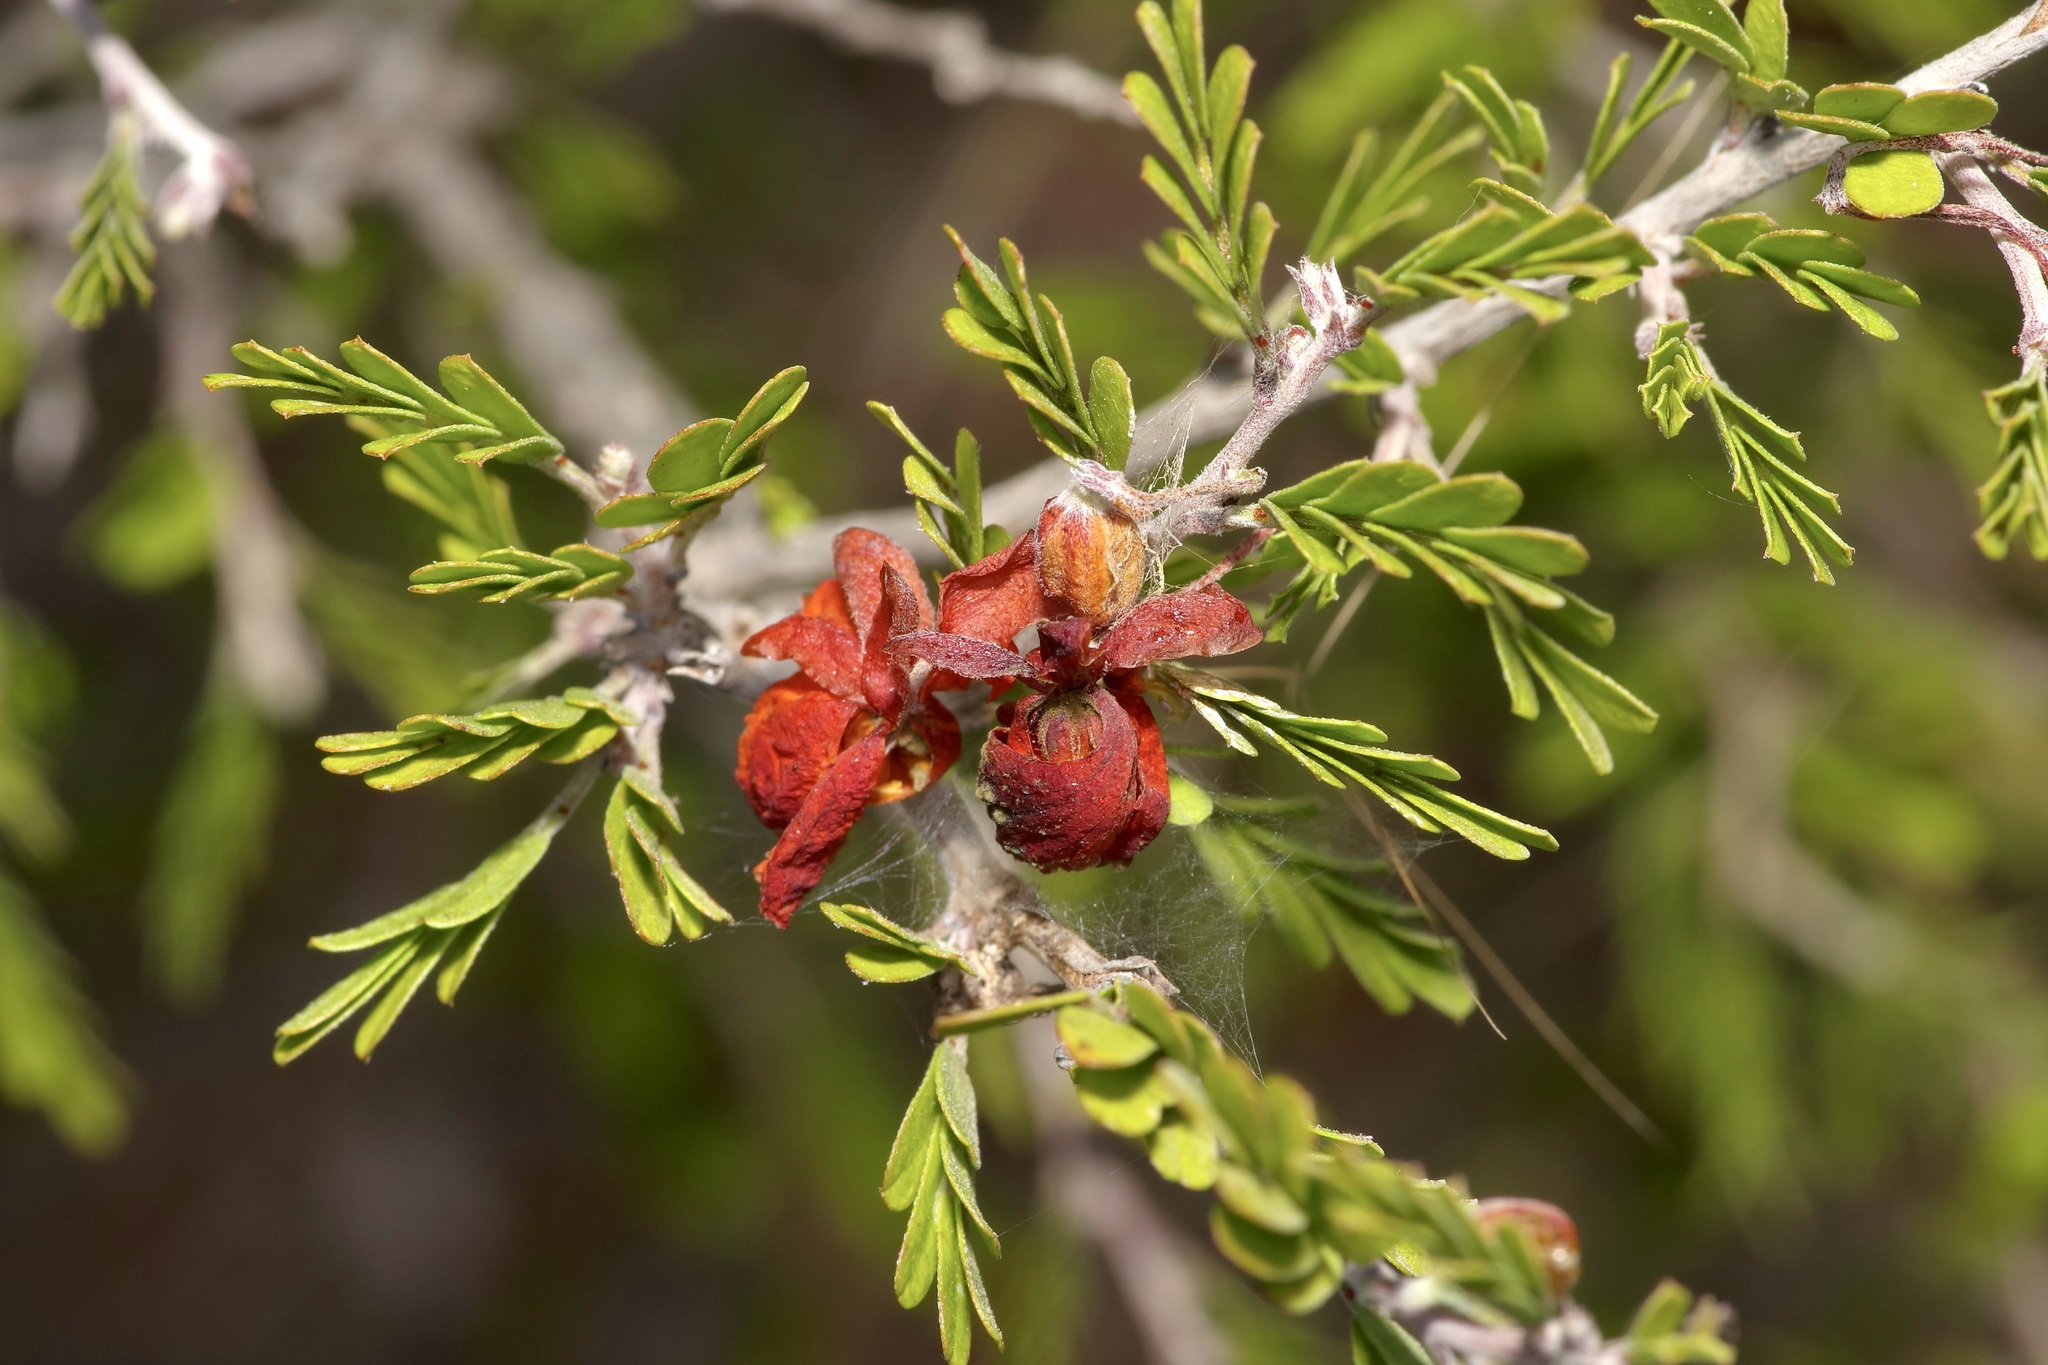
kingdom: Plantae
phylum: Tracheophyta
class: Magnoliopsida
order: Fabales
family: Fabaceae
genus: Chamaecrista
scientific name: Chamaecrista greggii
